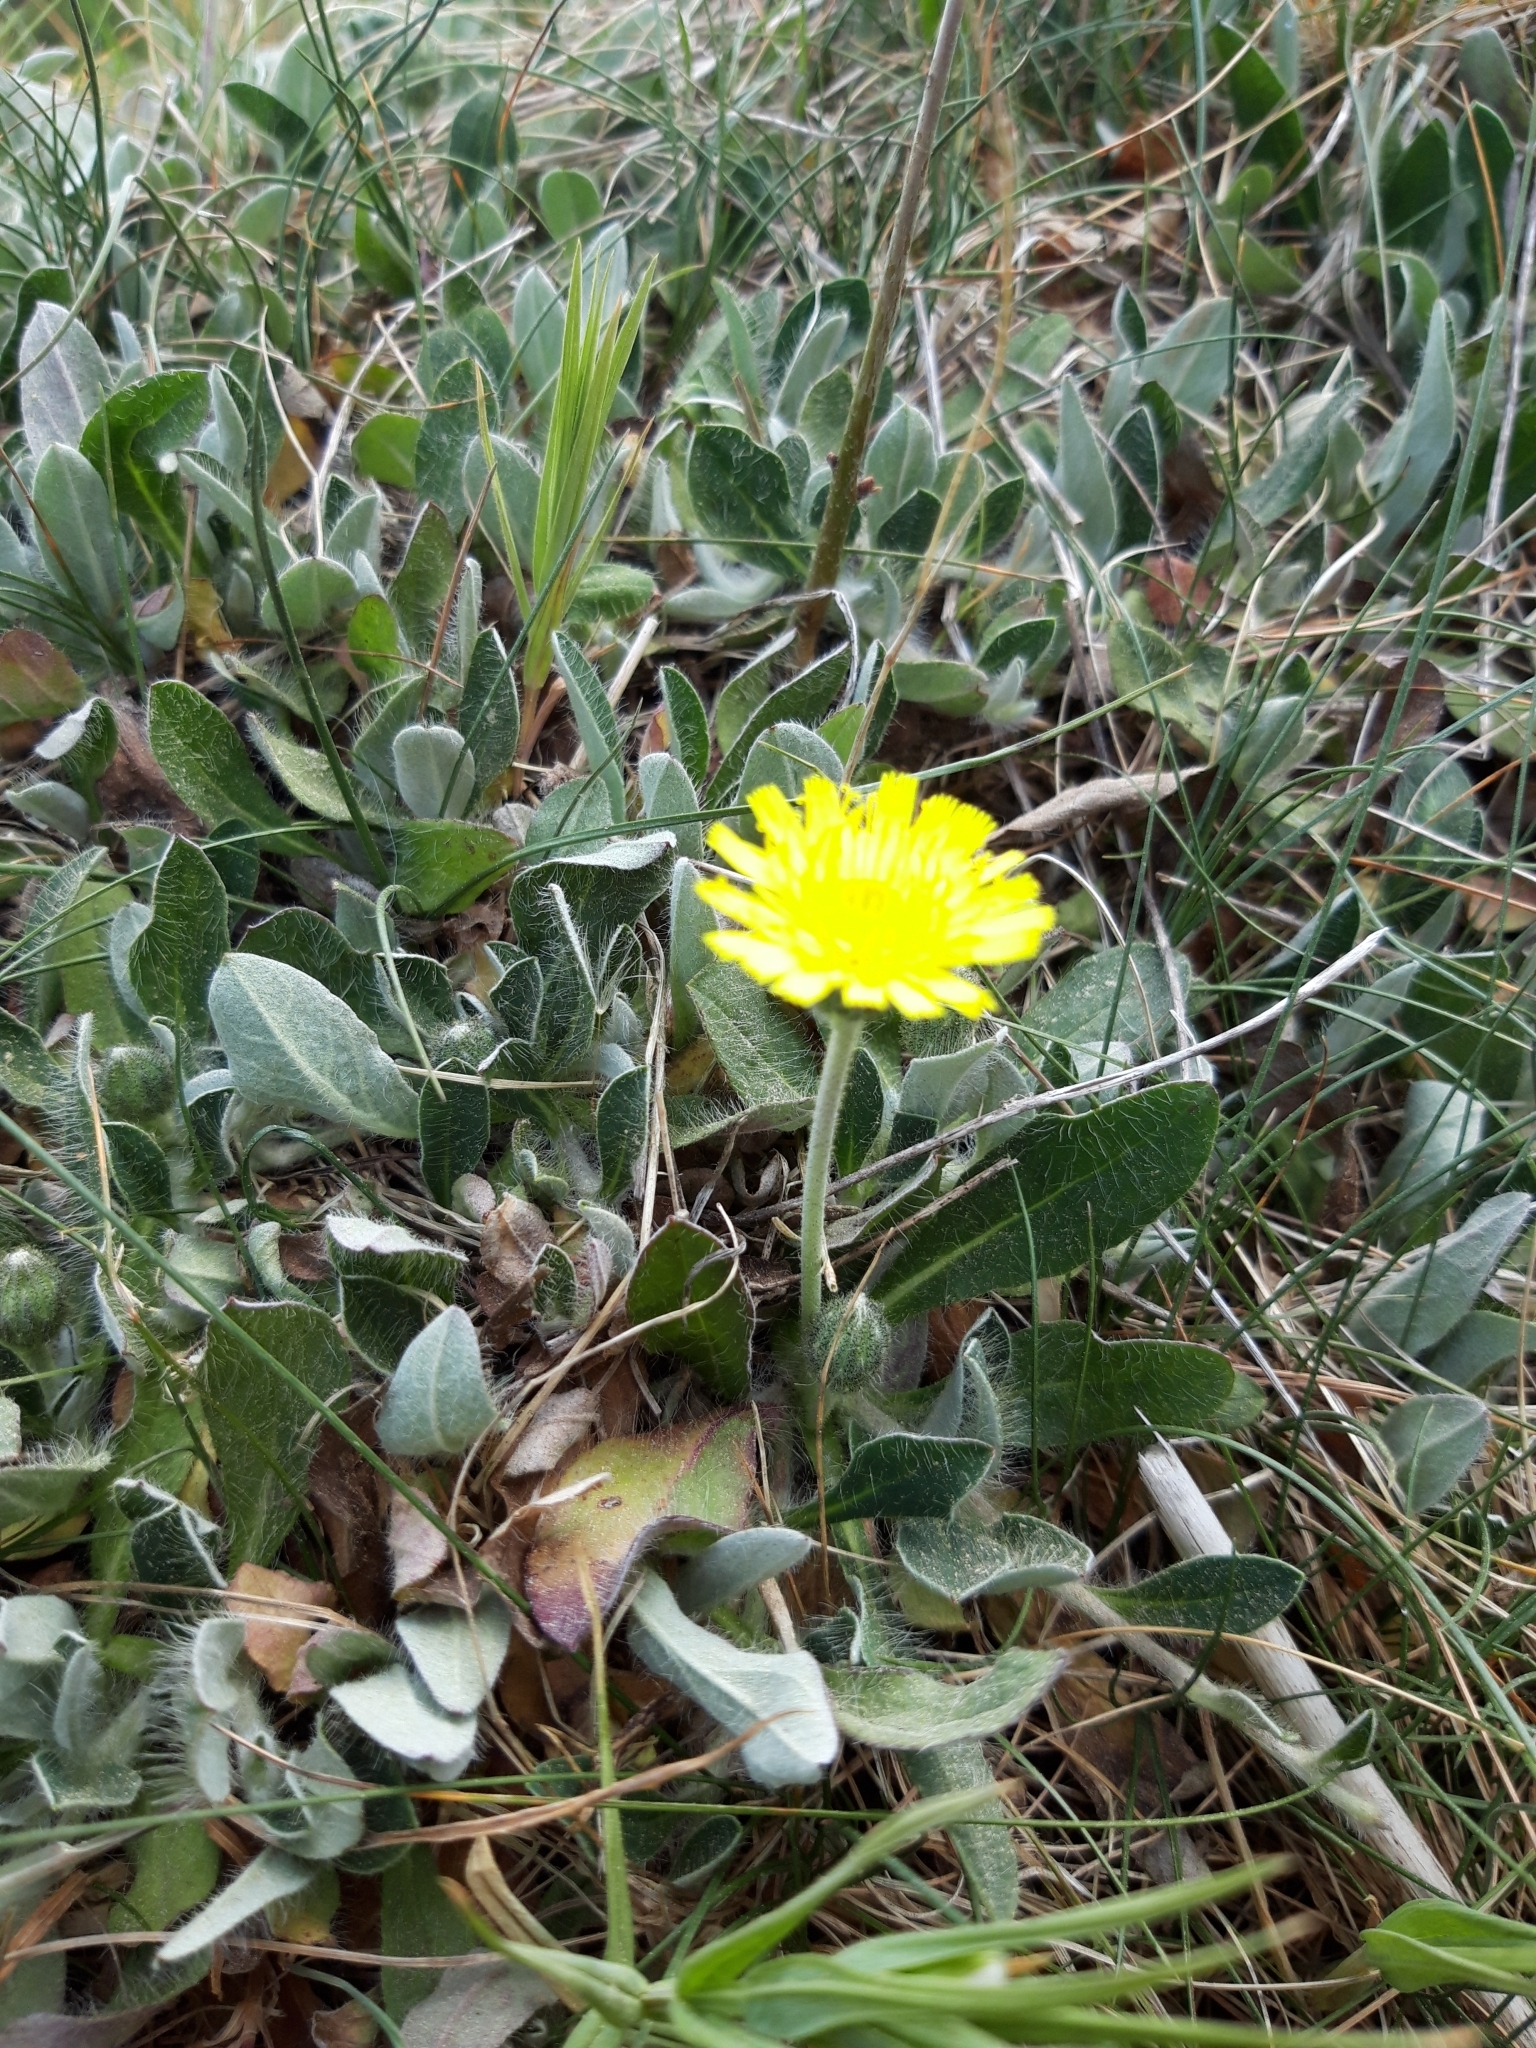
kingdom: Plantae
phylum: Tracheophyta
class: Magnoliopsida
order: Asterales
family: Asteraceae
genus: Pilosella
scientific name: Pilosella officinarum
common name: Mouse-ear hawkweed
